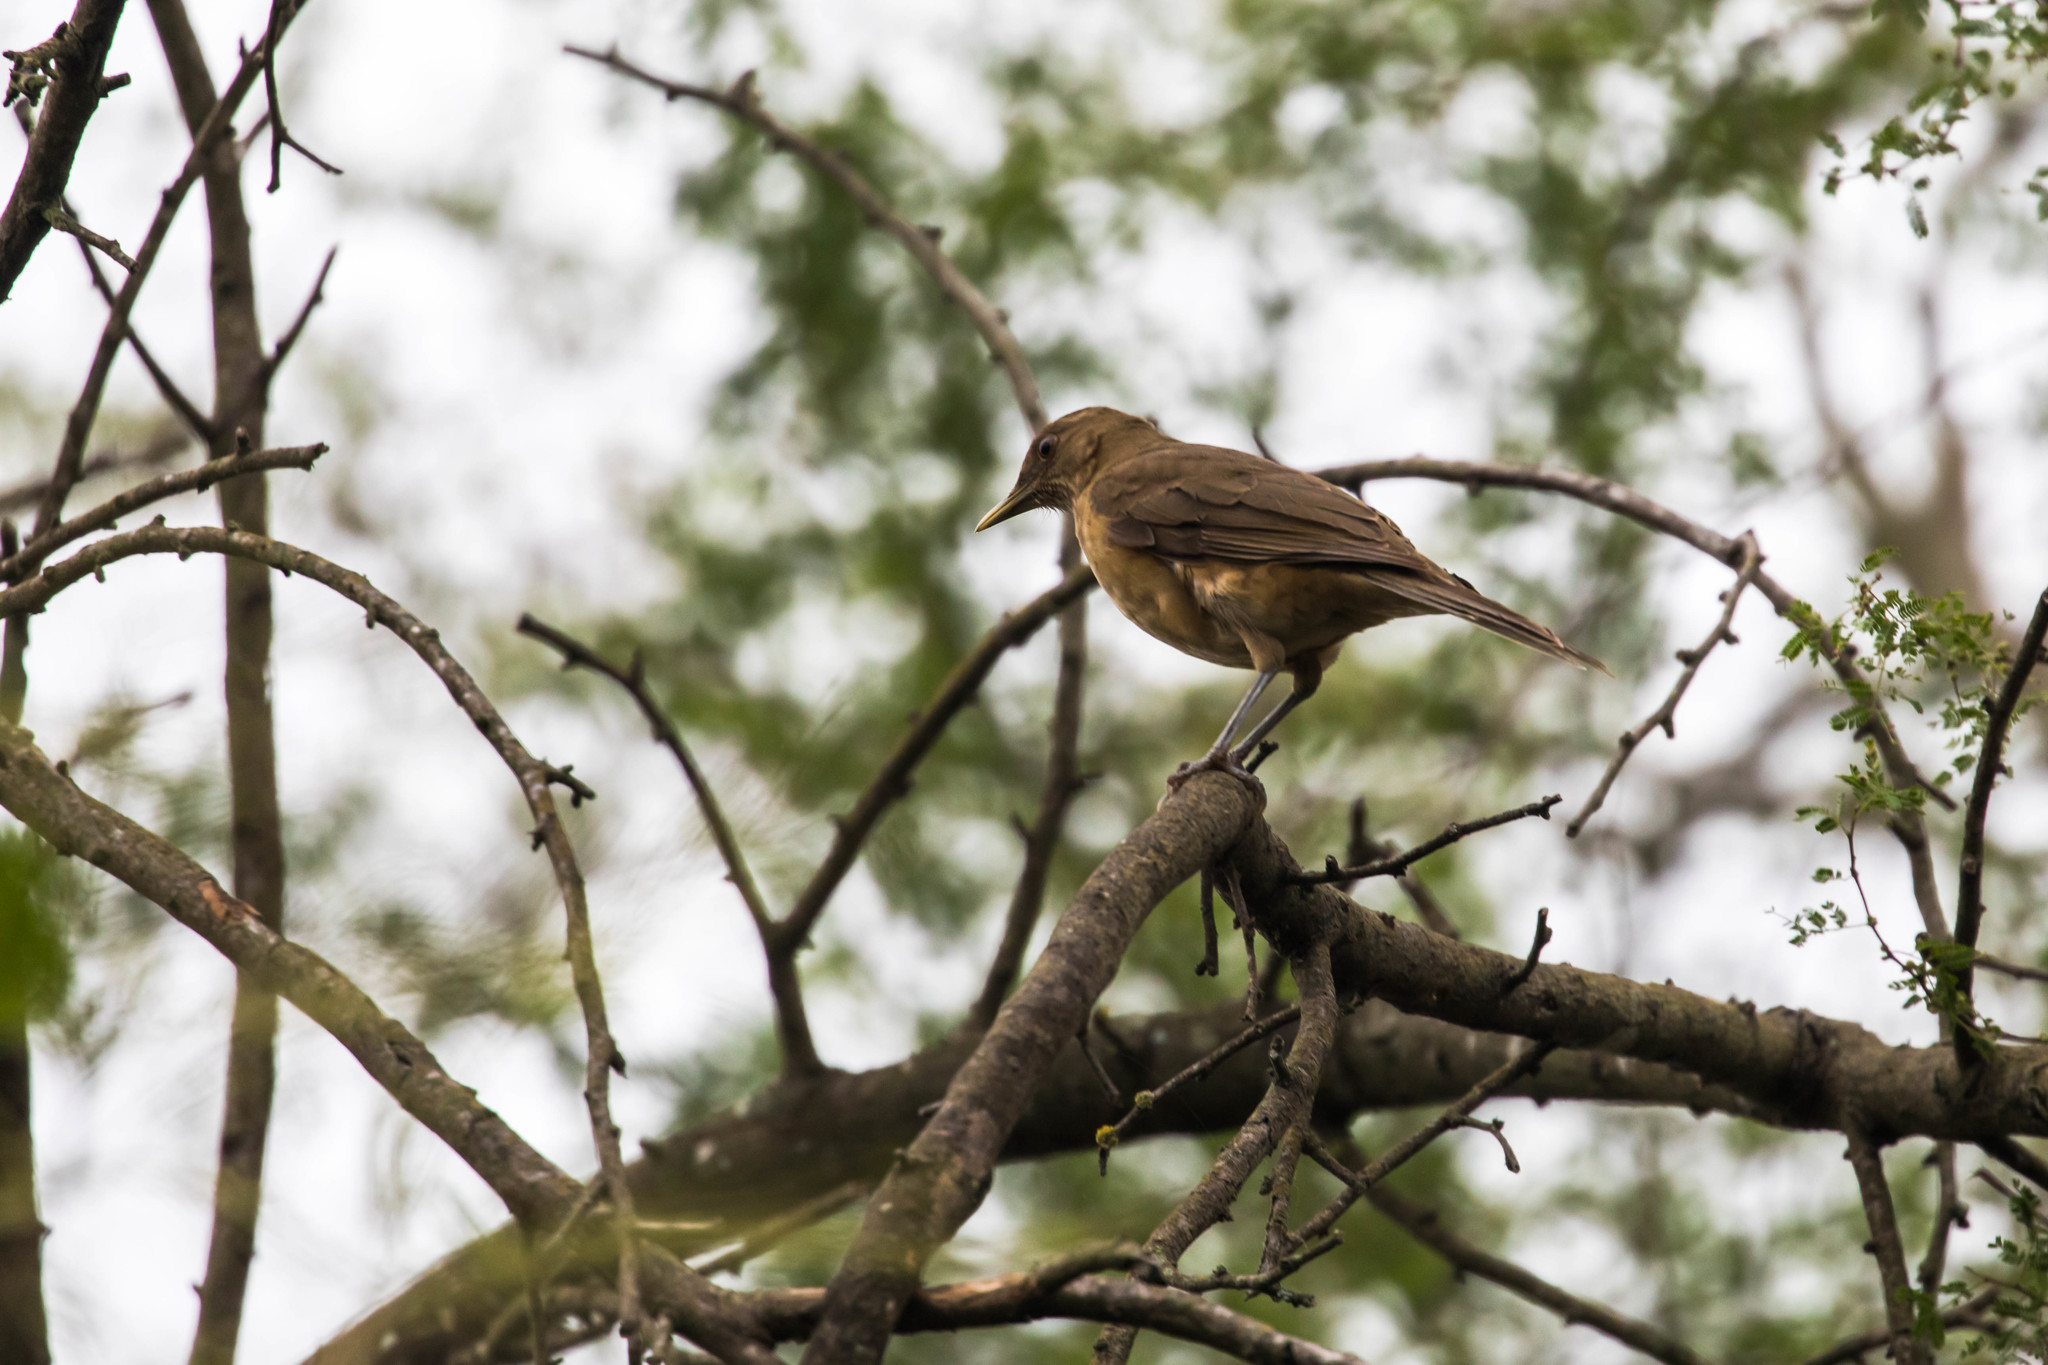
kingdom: Animalia
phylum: Chordata
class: Aves
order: Passeriformes
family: Turdidae
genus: Turdus
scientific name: Turdus grayi
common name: Clay-colored thrush
